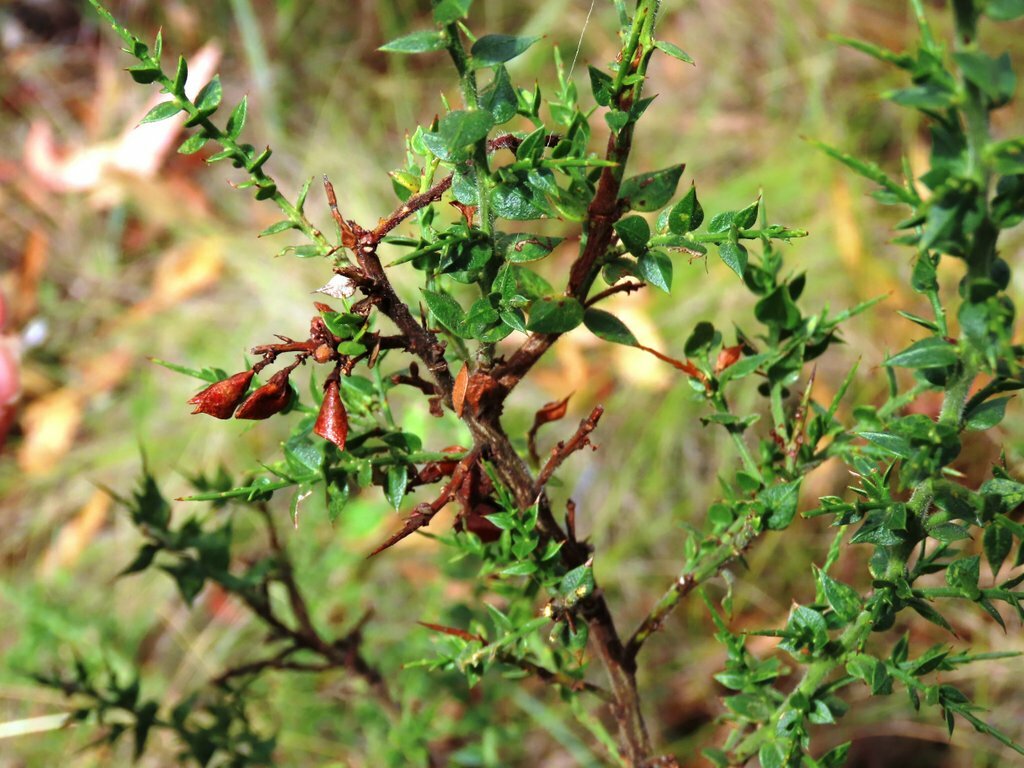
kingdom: Plantae
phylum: Tracheophyta
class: Magnoliopsida
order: Fabales
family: Fabaceae
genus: Daviesia
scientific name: Daviesia ulicifolia
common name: Gorse bitter-pea
